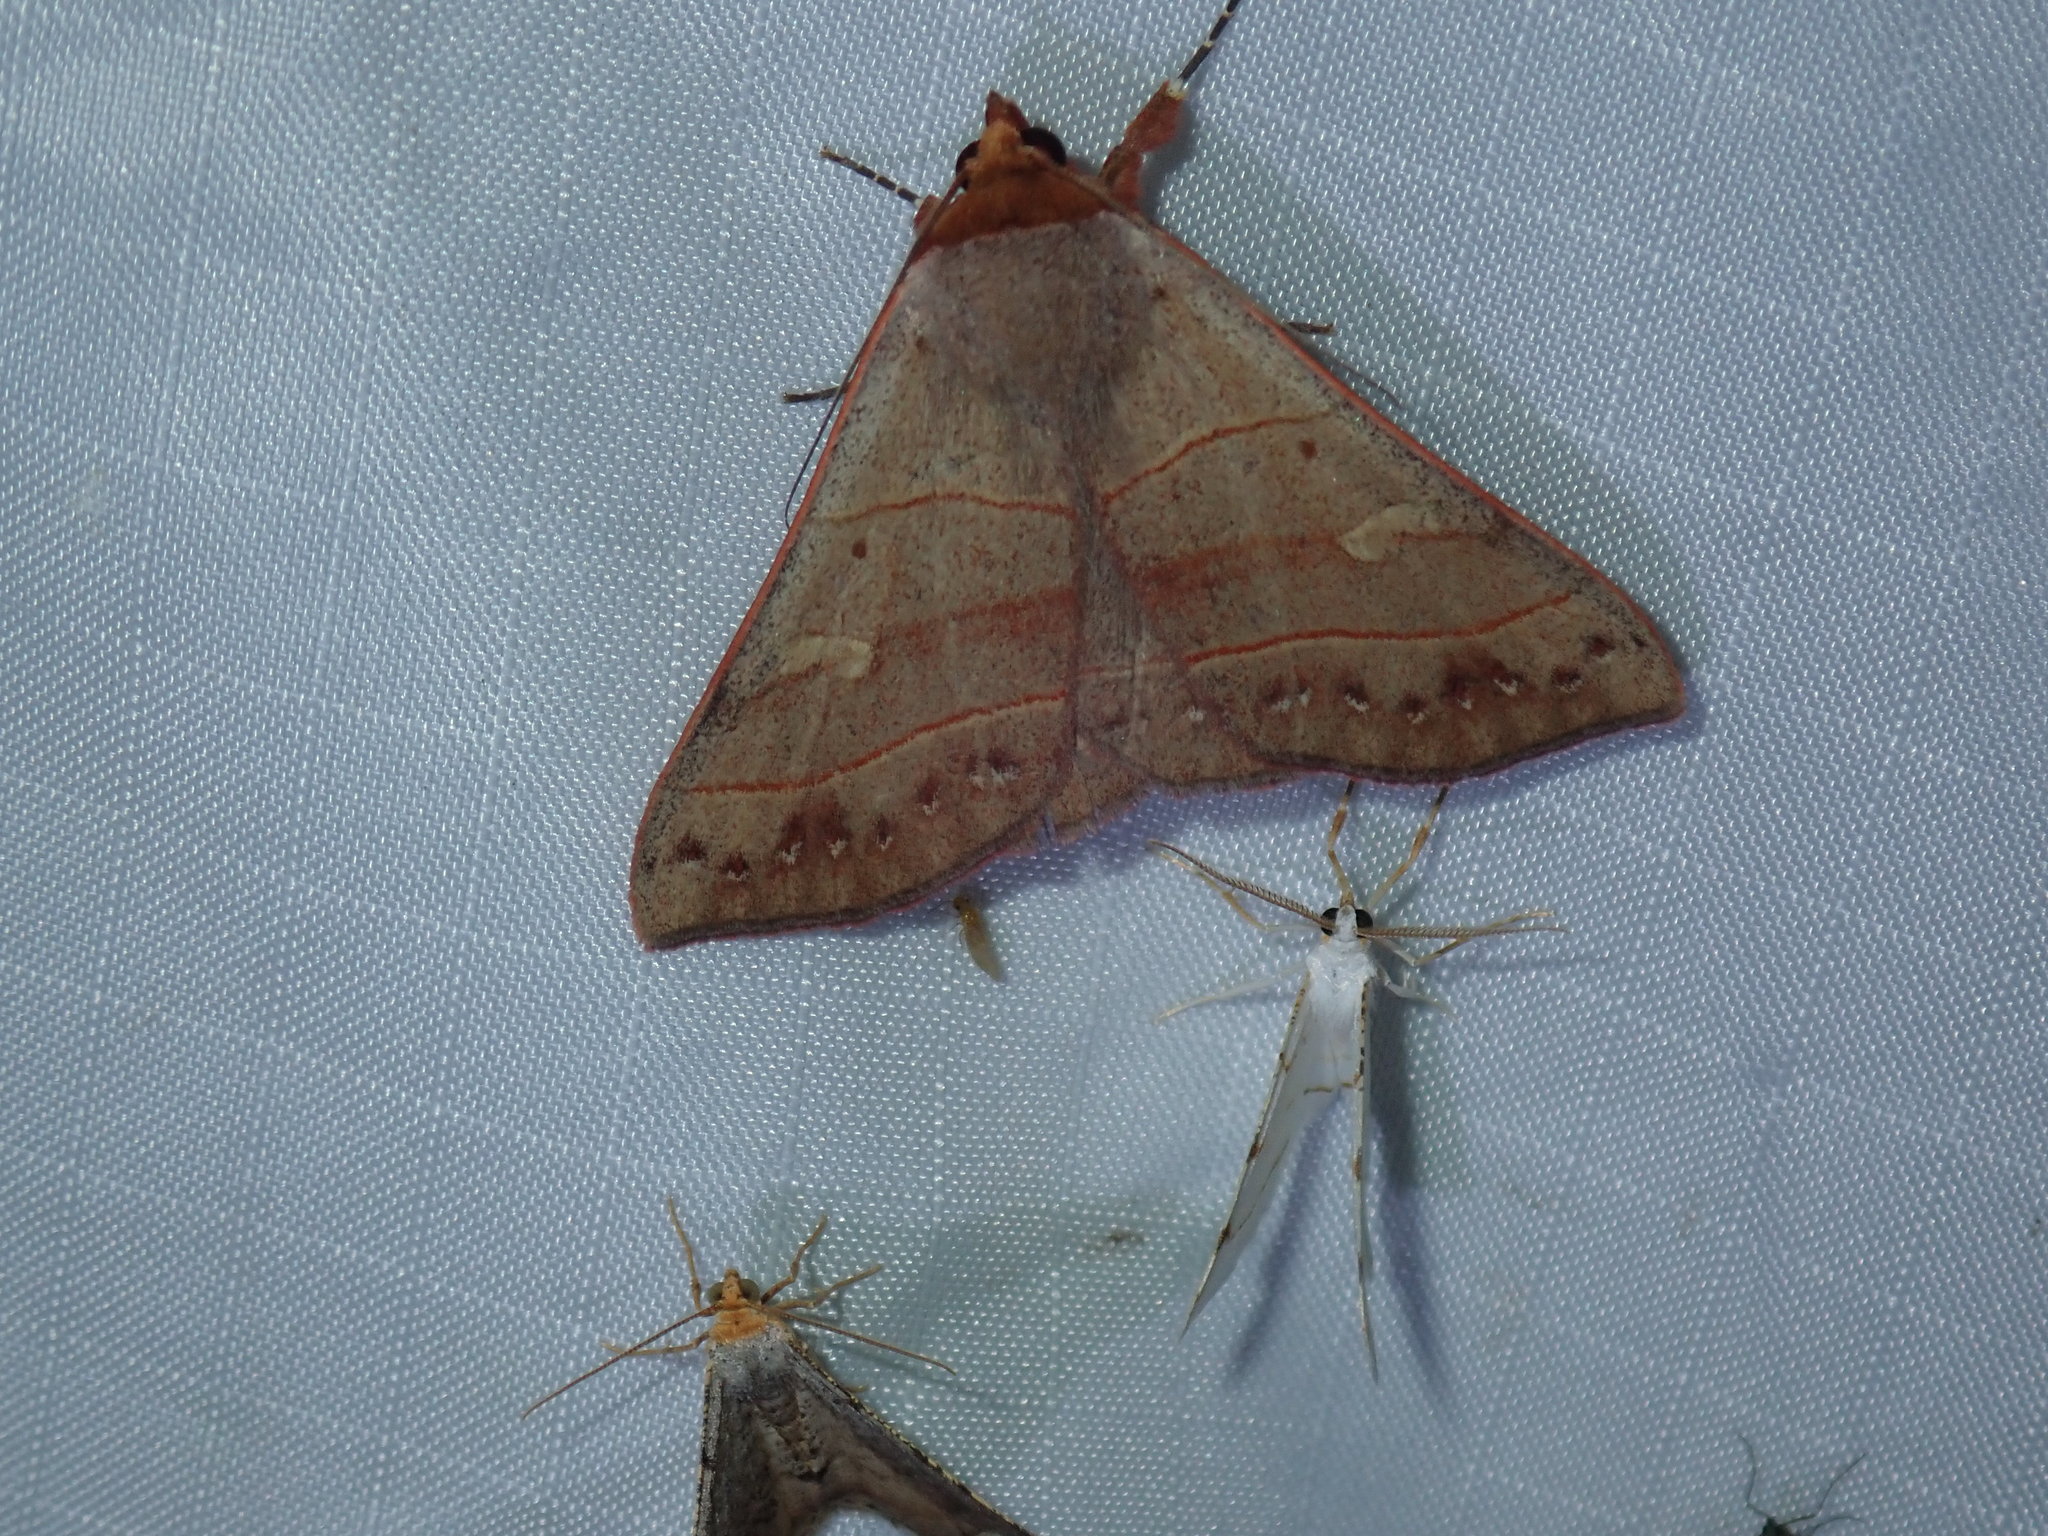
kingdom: Animalia
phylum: Arthropoda
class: Insecta
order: Lepidoptera
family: Erebidae
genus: Panopoda
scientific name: Panopoda rufimargo
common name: Red-lined panopoda moth
